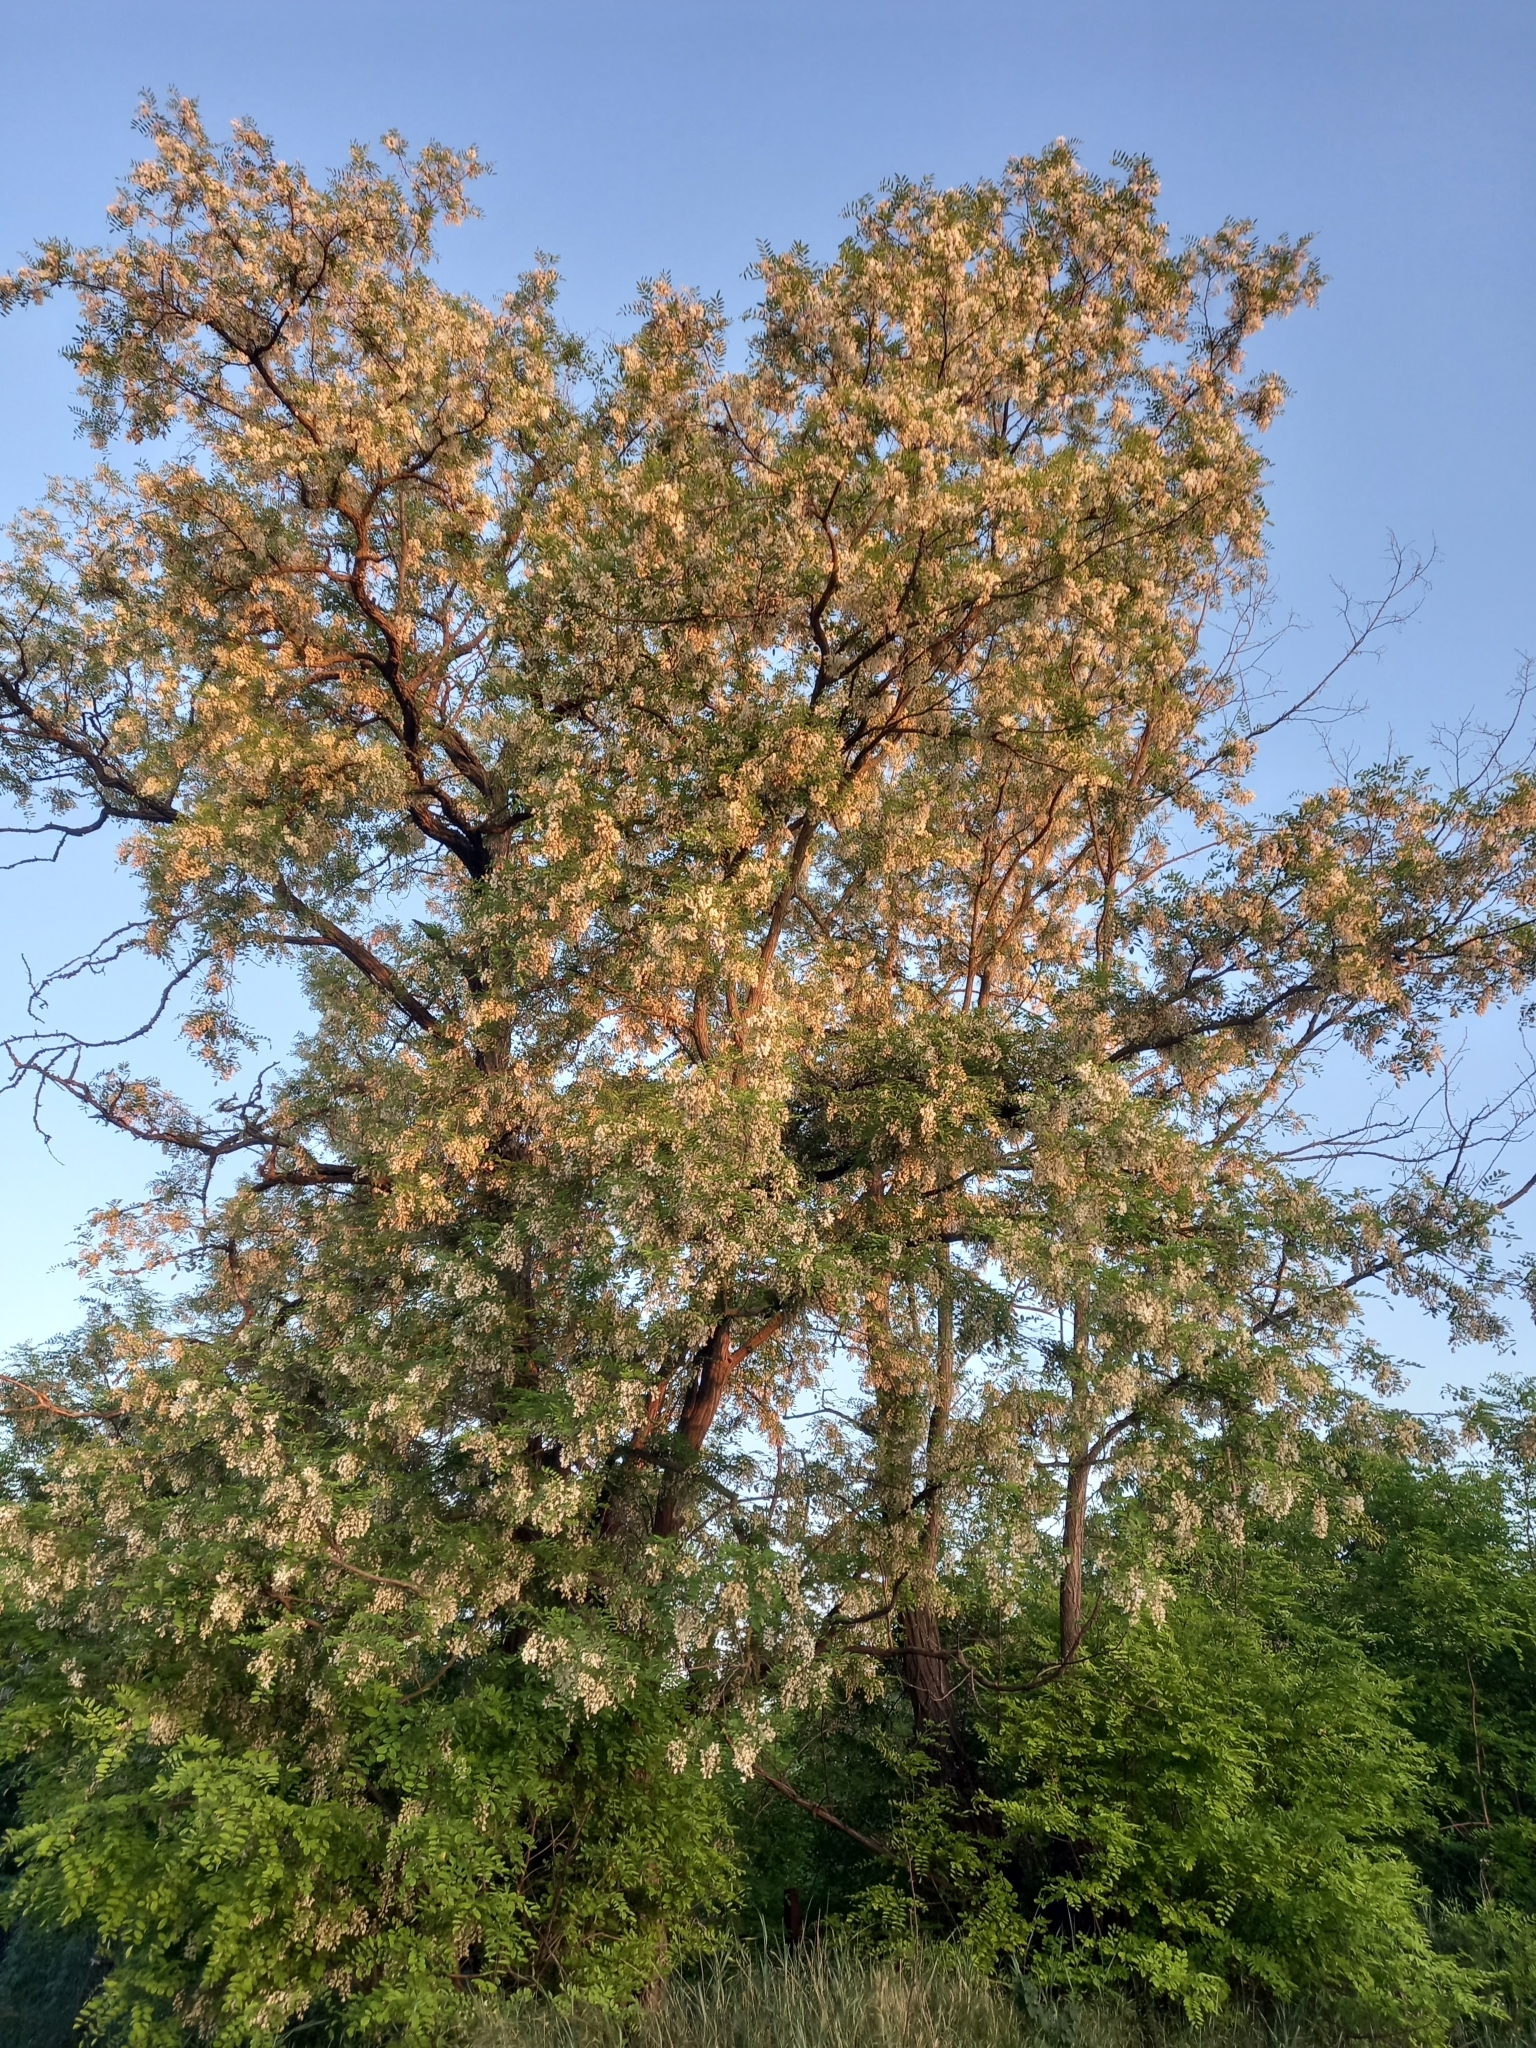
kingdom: Plantae
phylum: Tracheophyta
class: Magnoliopsida
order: Fabales
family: Fabaceae
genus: Robinia
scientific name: Robinia pseudoacacia
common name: Black locust
